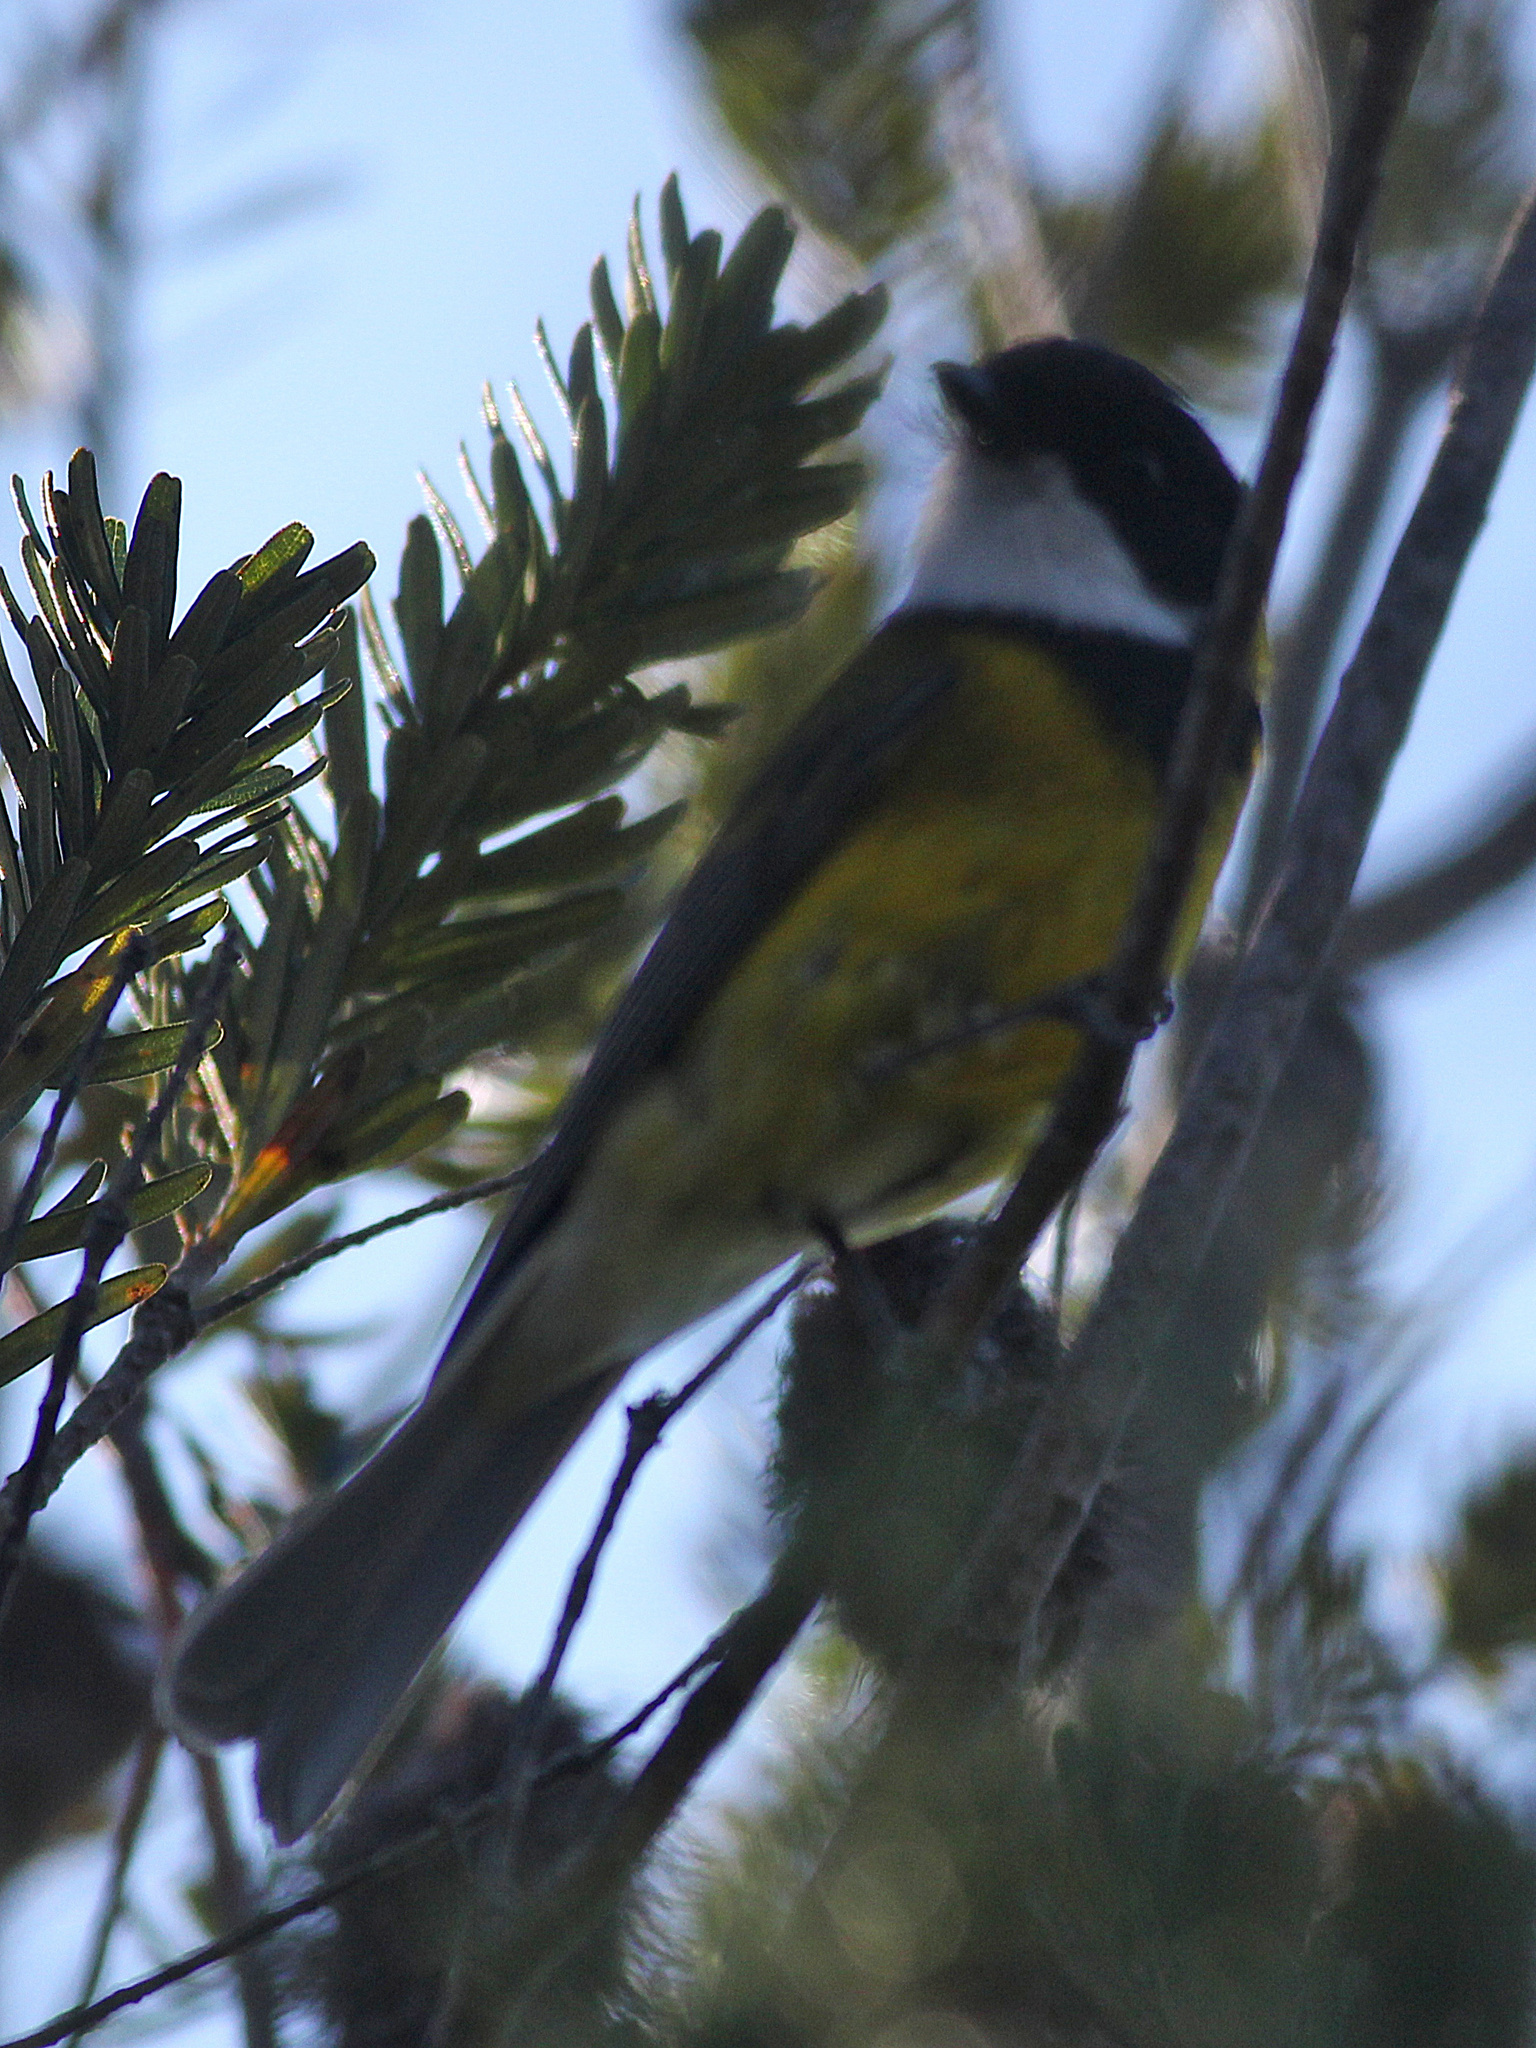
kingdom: Animalia
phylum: Chordata
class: Aves
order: Passeriformes
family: Pachycephalidae
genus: Pachycephala
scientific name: Pachycephala pectoralis
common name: Australian golden whistler
